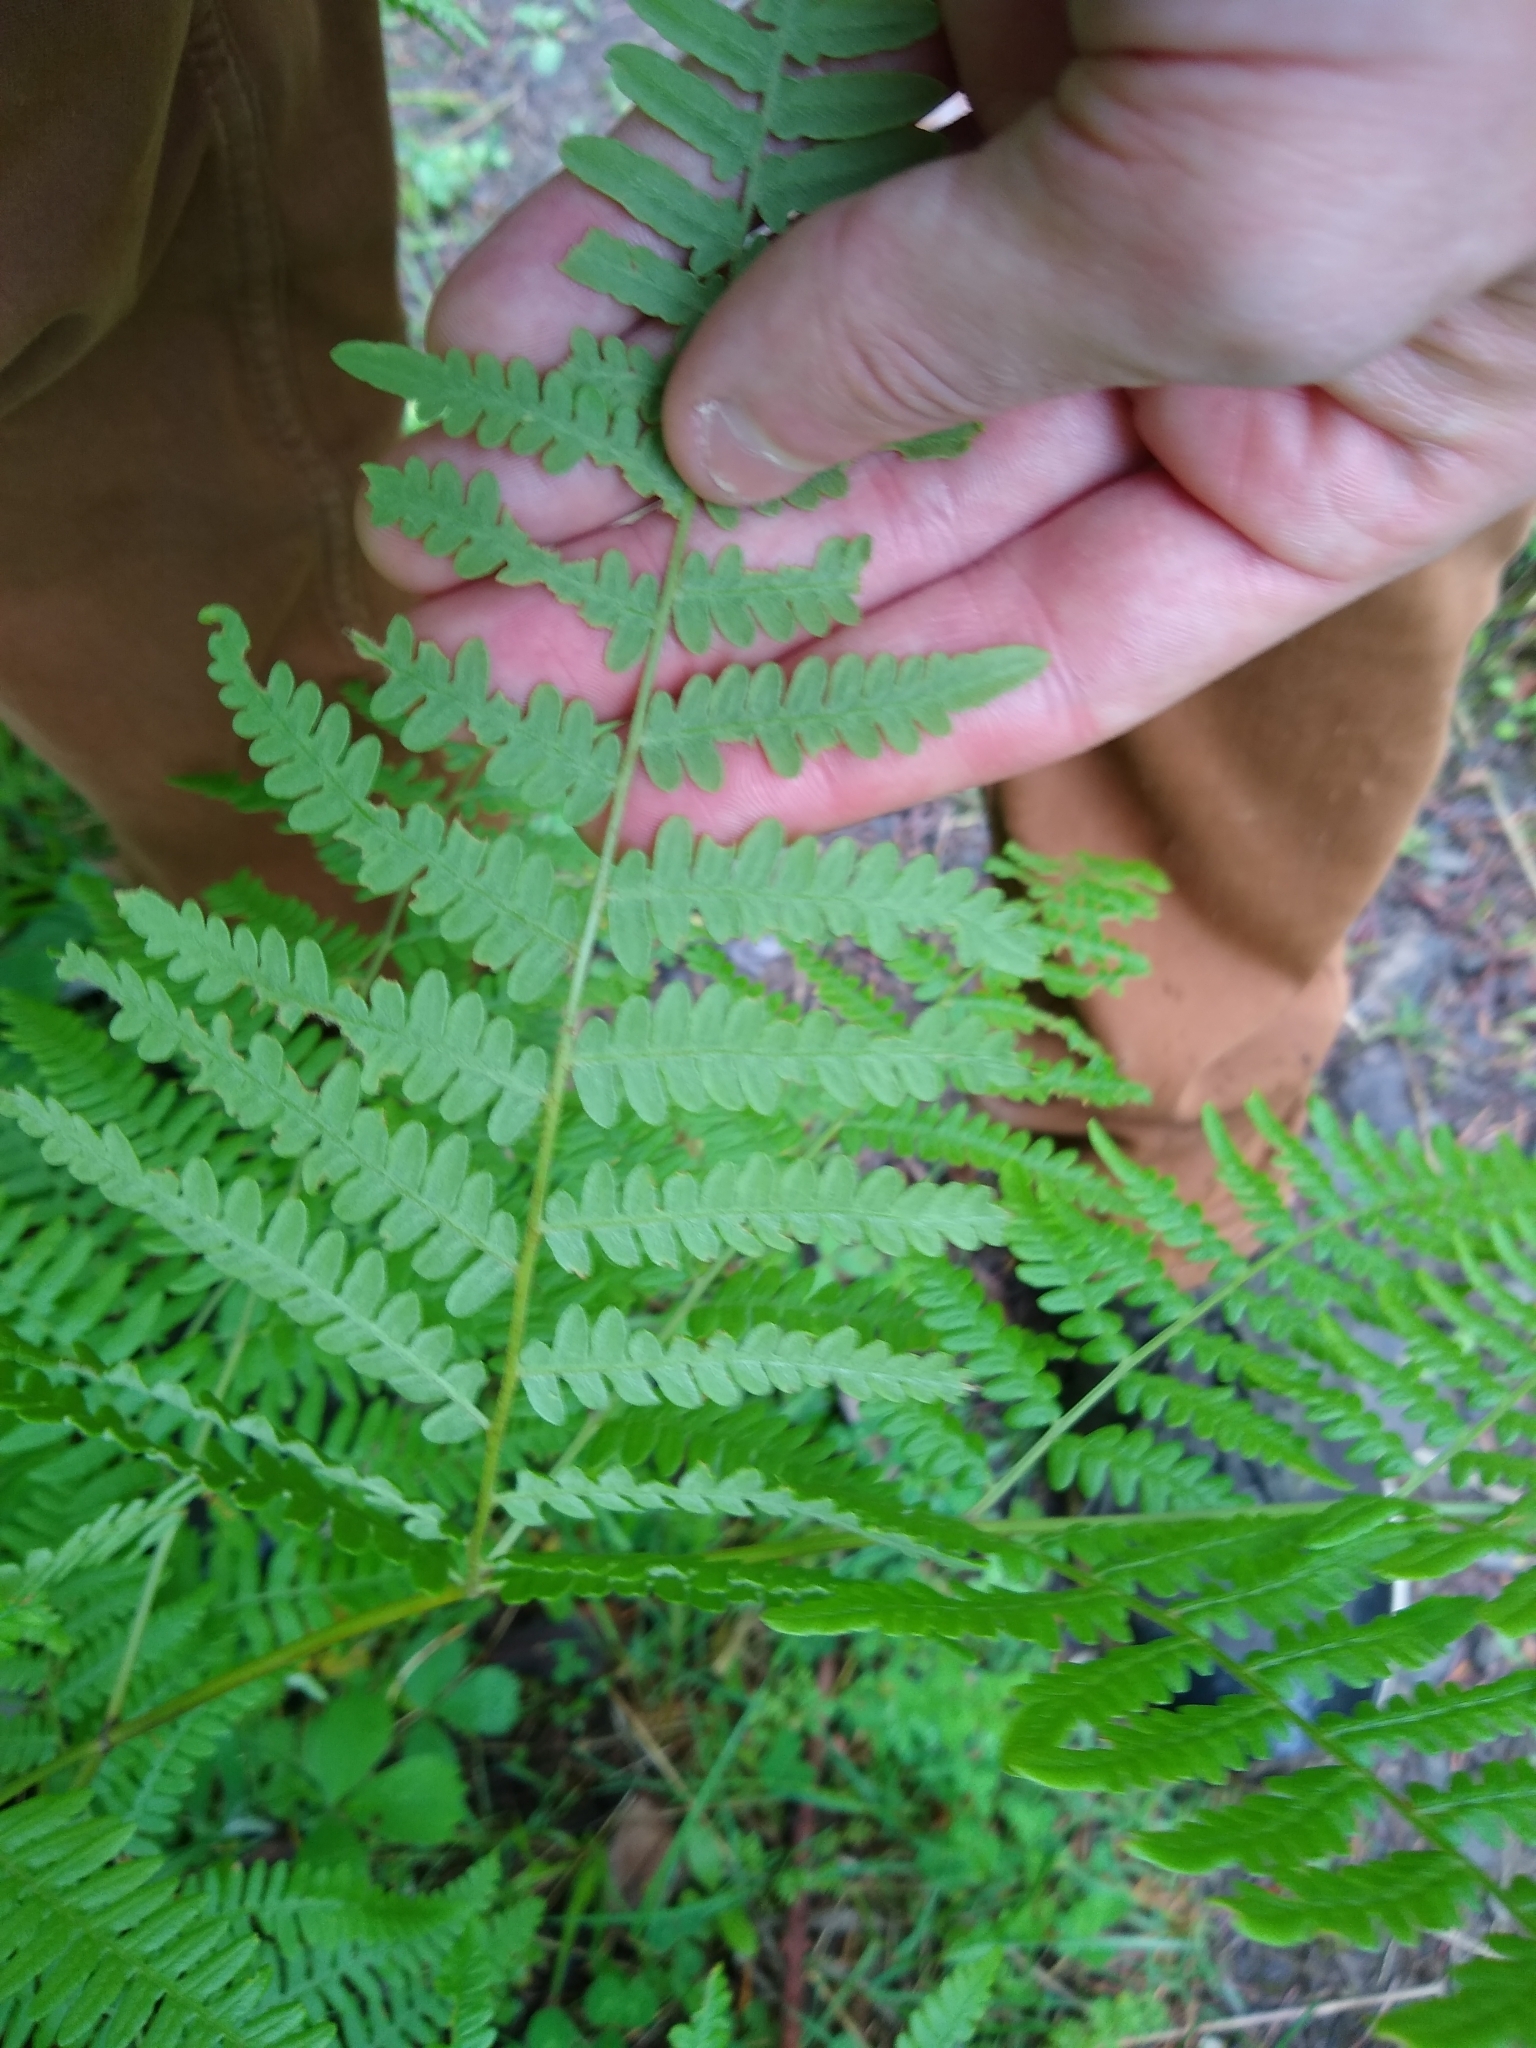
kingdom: Plantae
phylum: Tracheophyta
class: Polypodiopsida
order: Polypodiales
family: Dennstaedtiaceae
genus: Pteridium
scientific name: Pteridium aquilinum
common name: Bracken
